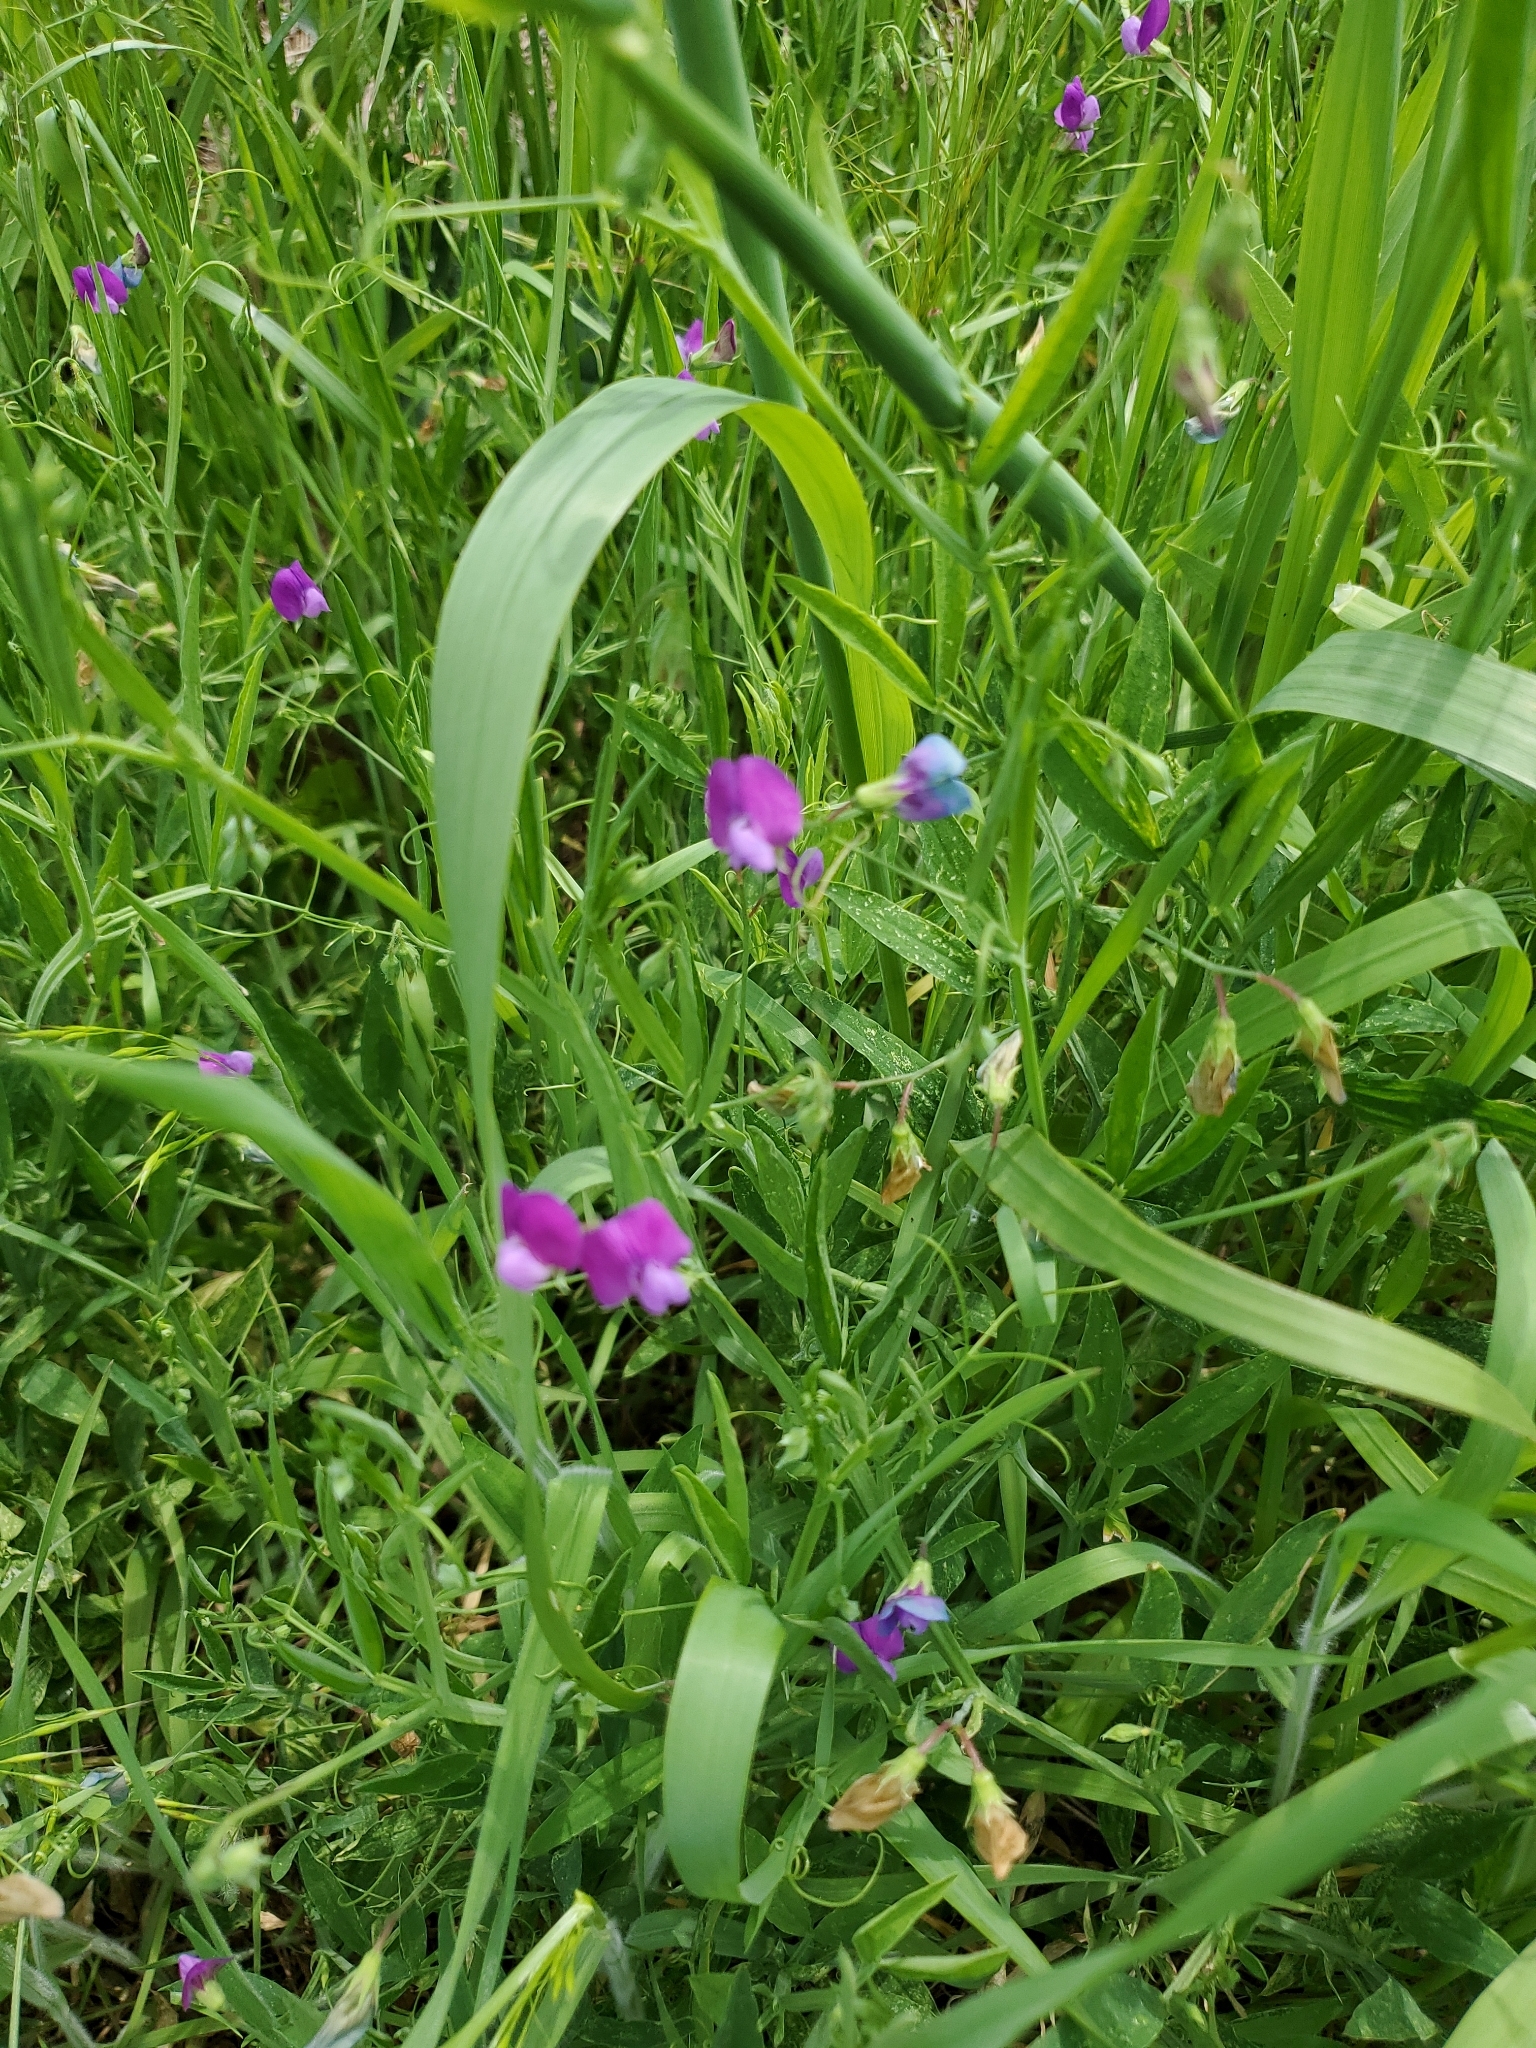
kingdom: Plantae
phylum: Tracheophyta
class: Magnoliopsida
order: Fabales
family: Fabaceae
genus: Lathyrus
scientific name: Lathyrus hirsutus
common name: Hairy vetchling
